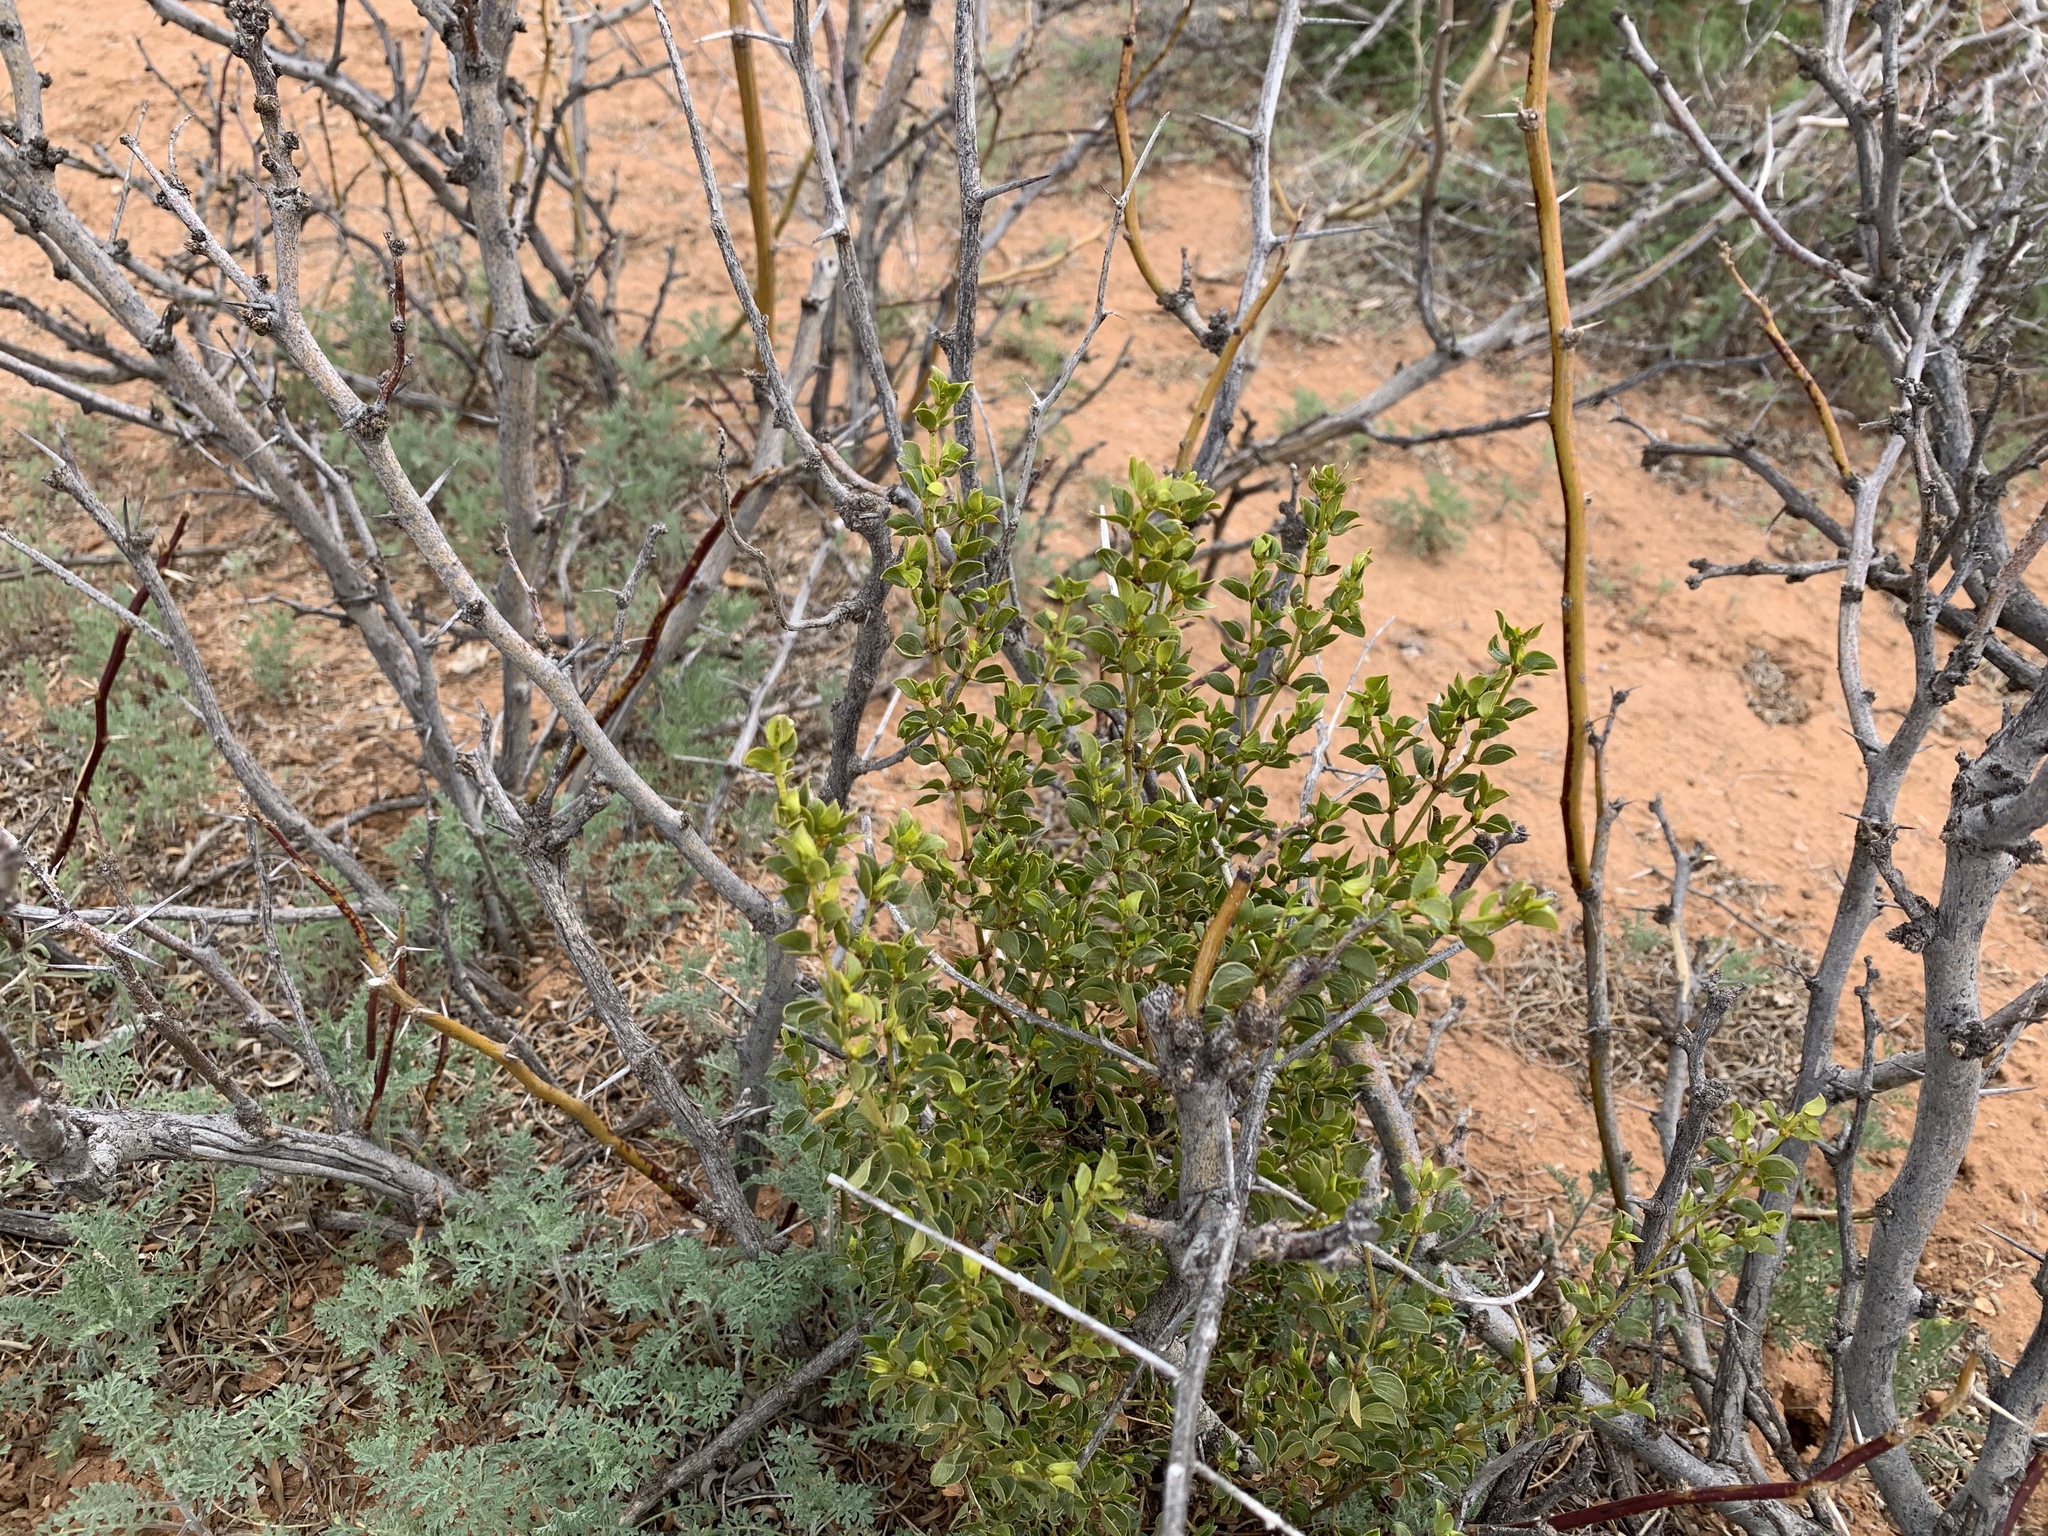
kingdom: Plantae
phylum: Tracheophyta
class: Magnoliopsida
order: Zygophyllales
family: Zygophyllaceae
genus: Larrea
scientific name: Larrea tridentata
